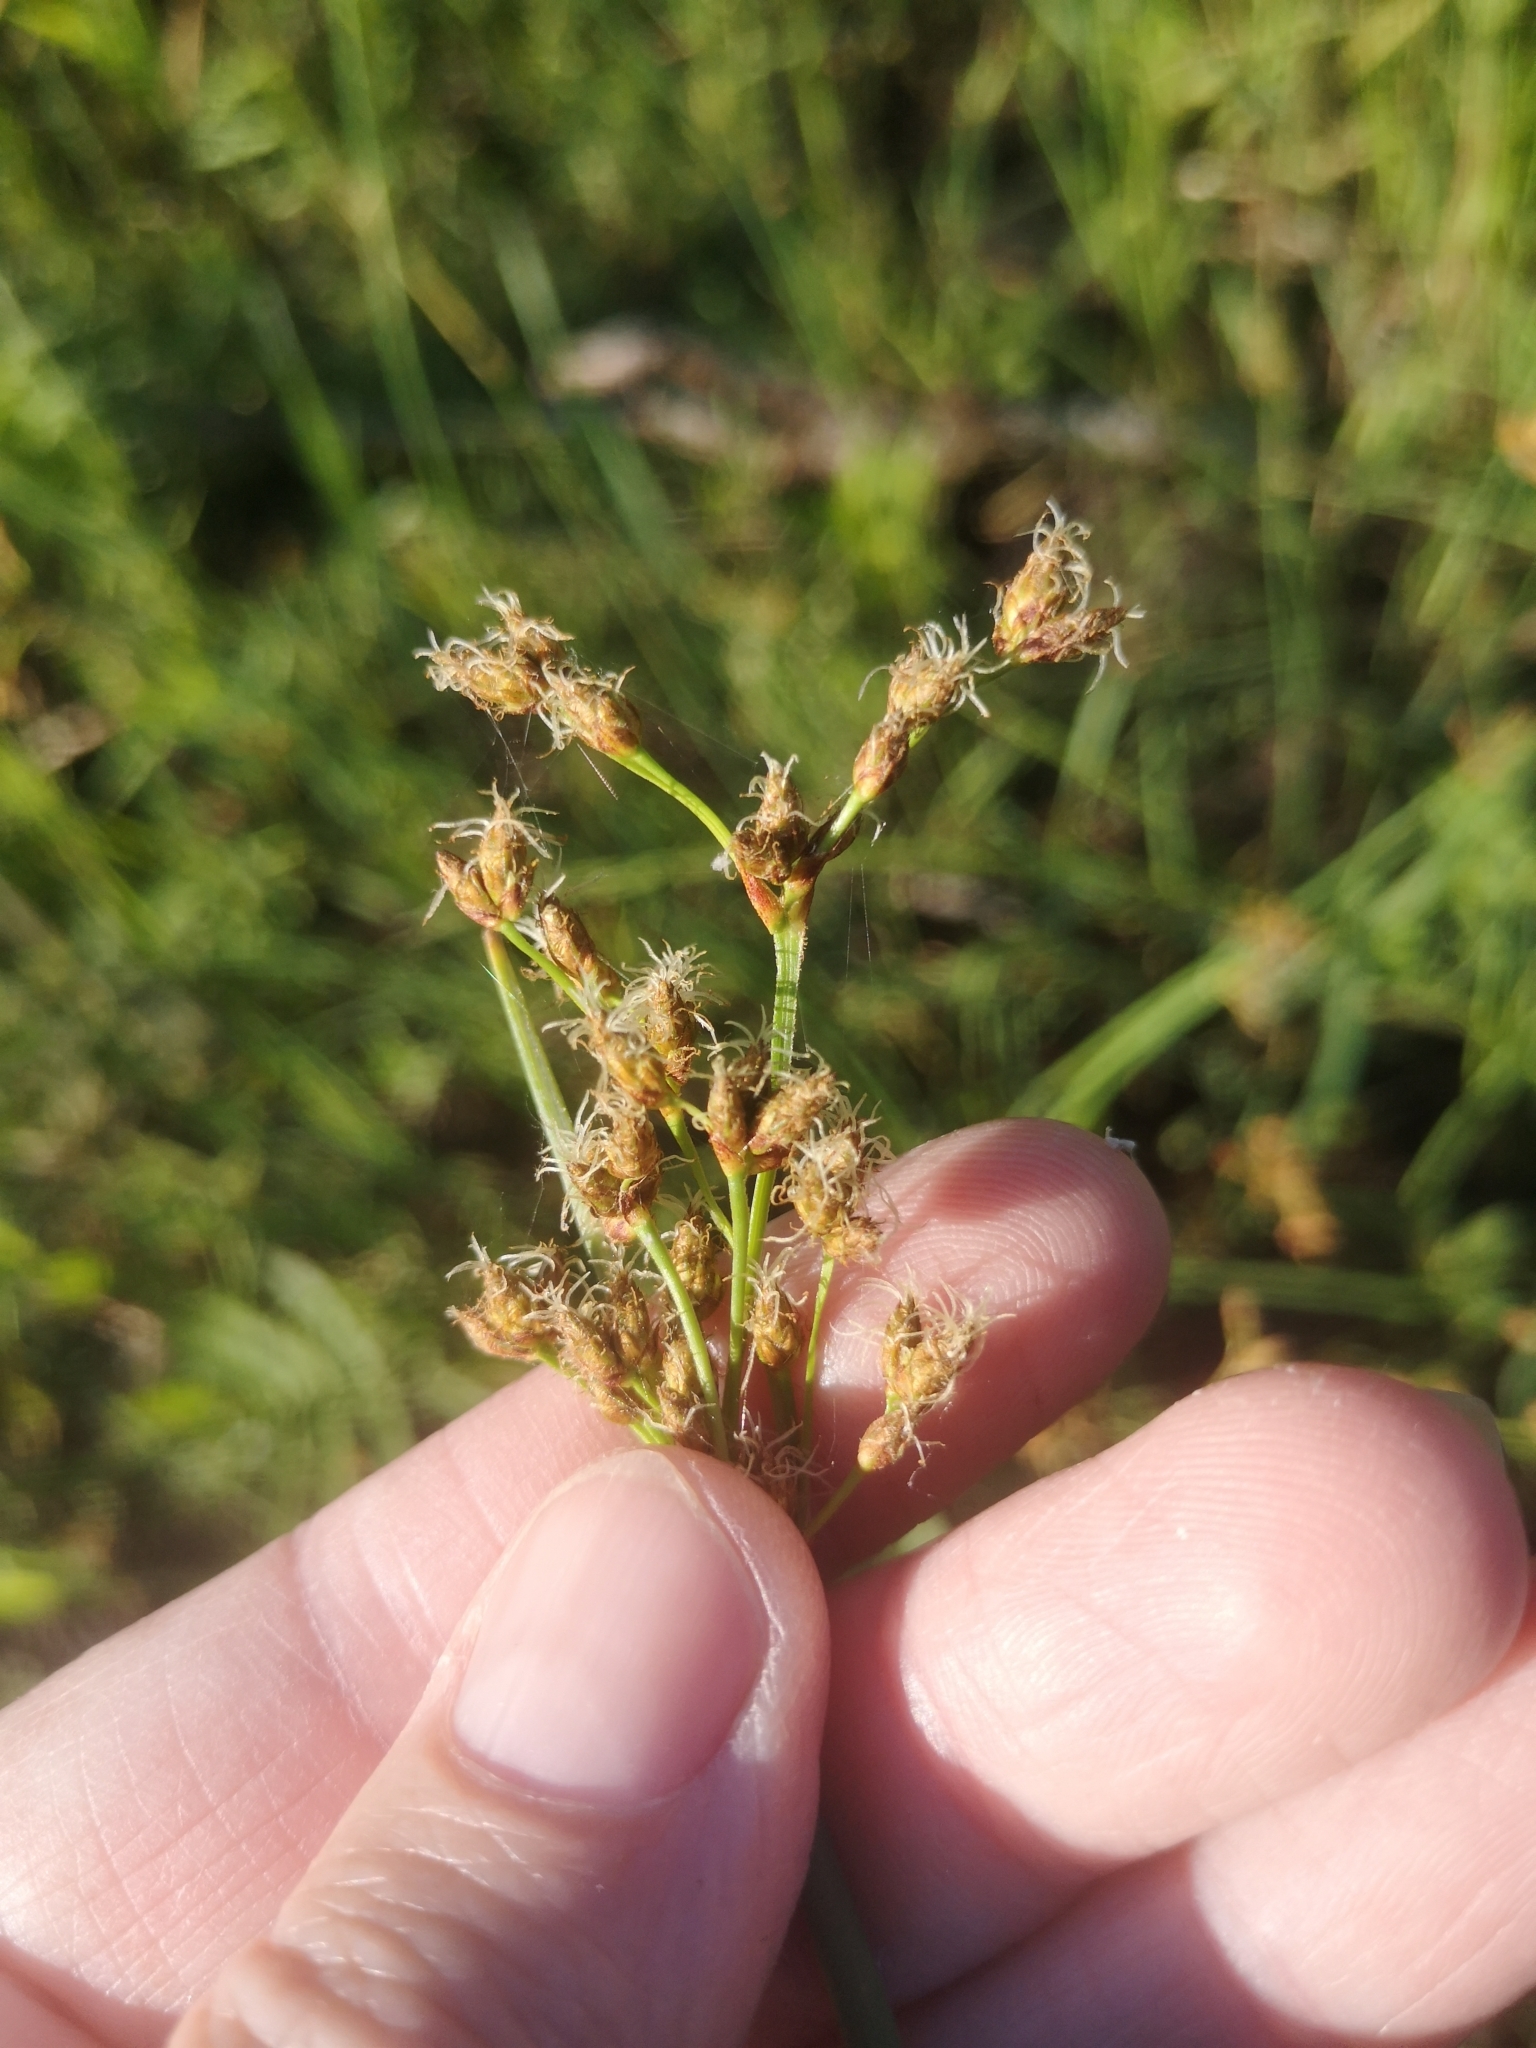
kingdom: Plantae
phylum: Tracheophyta
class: Liliopsida
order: Poales
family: Cyperaceae
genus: Schoenoplectus
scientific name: Schoenoplectus tabernaemontani
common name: Grey club-rush
